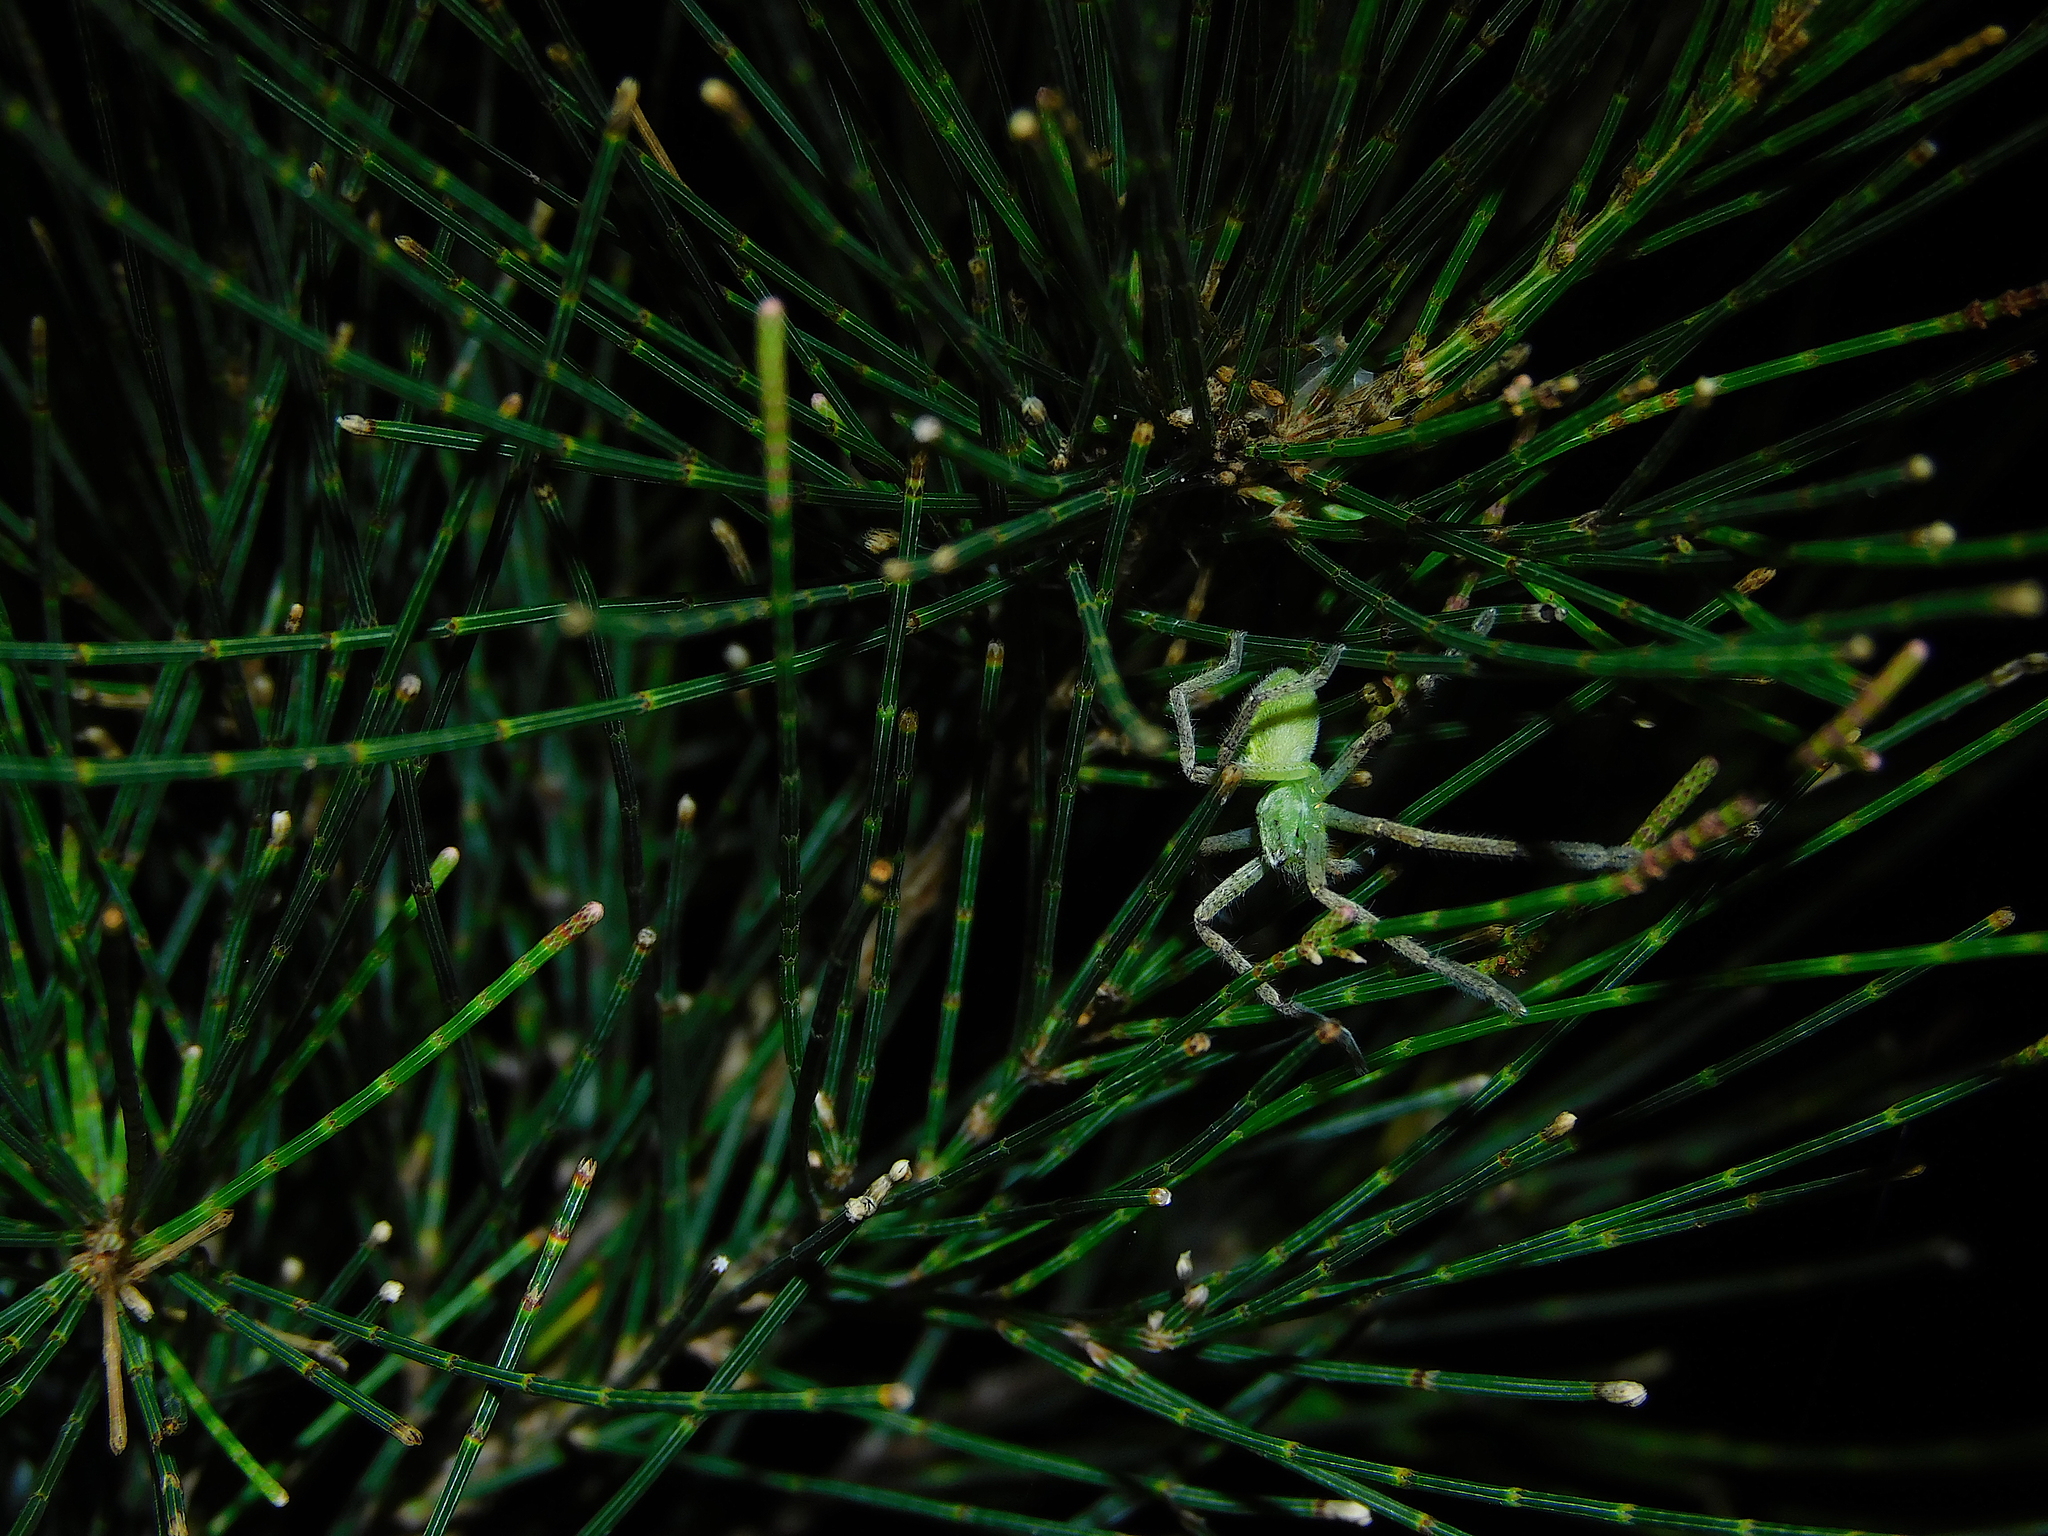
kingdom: Animalia
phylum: Arthropoda
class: Arachnida
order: Araneae
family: Sparassidae
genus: Neosparassus
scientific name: Neosparassus patellatus
